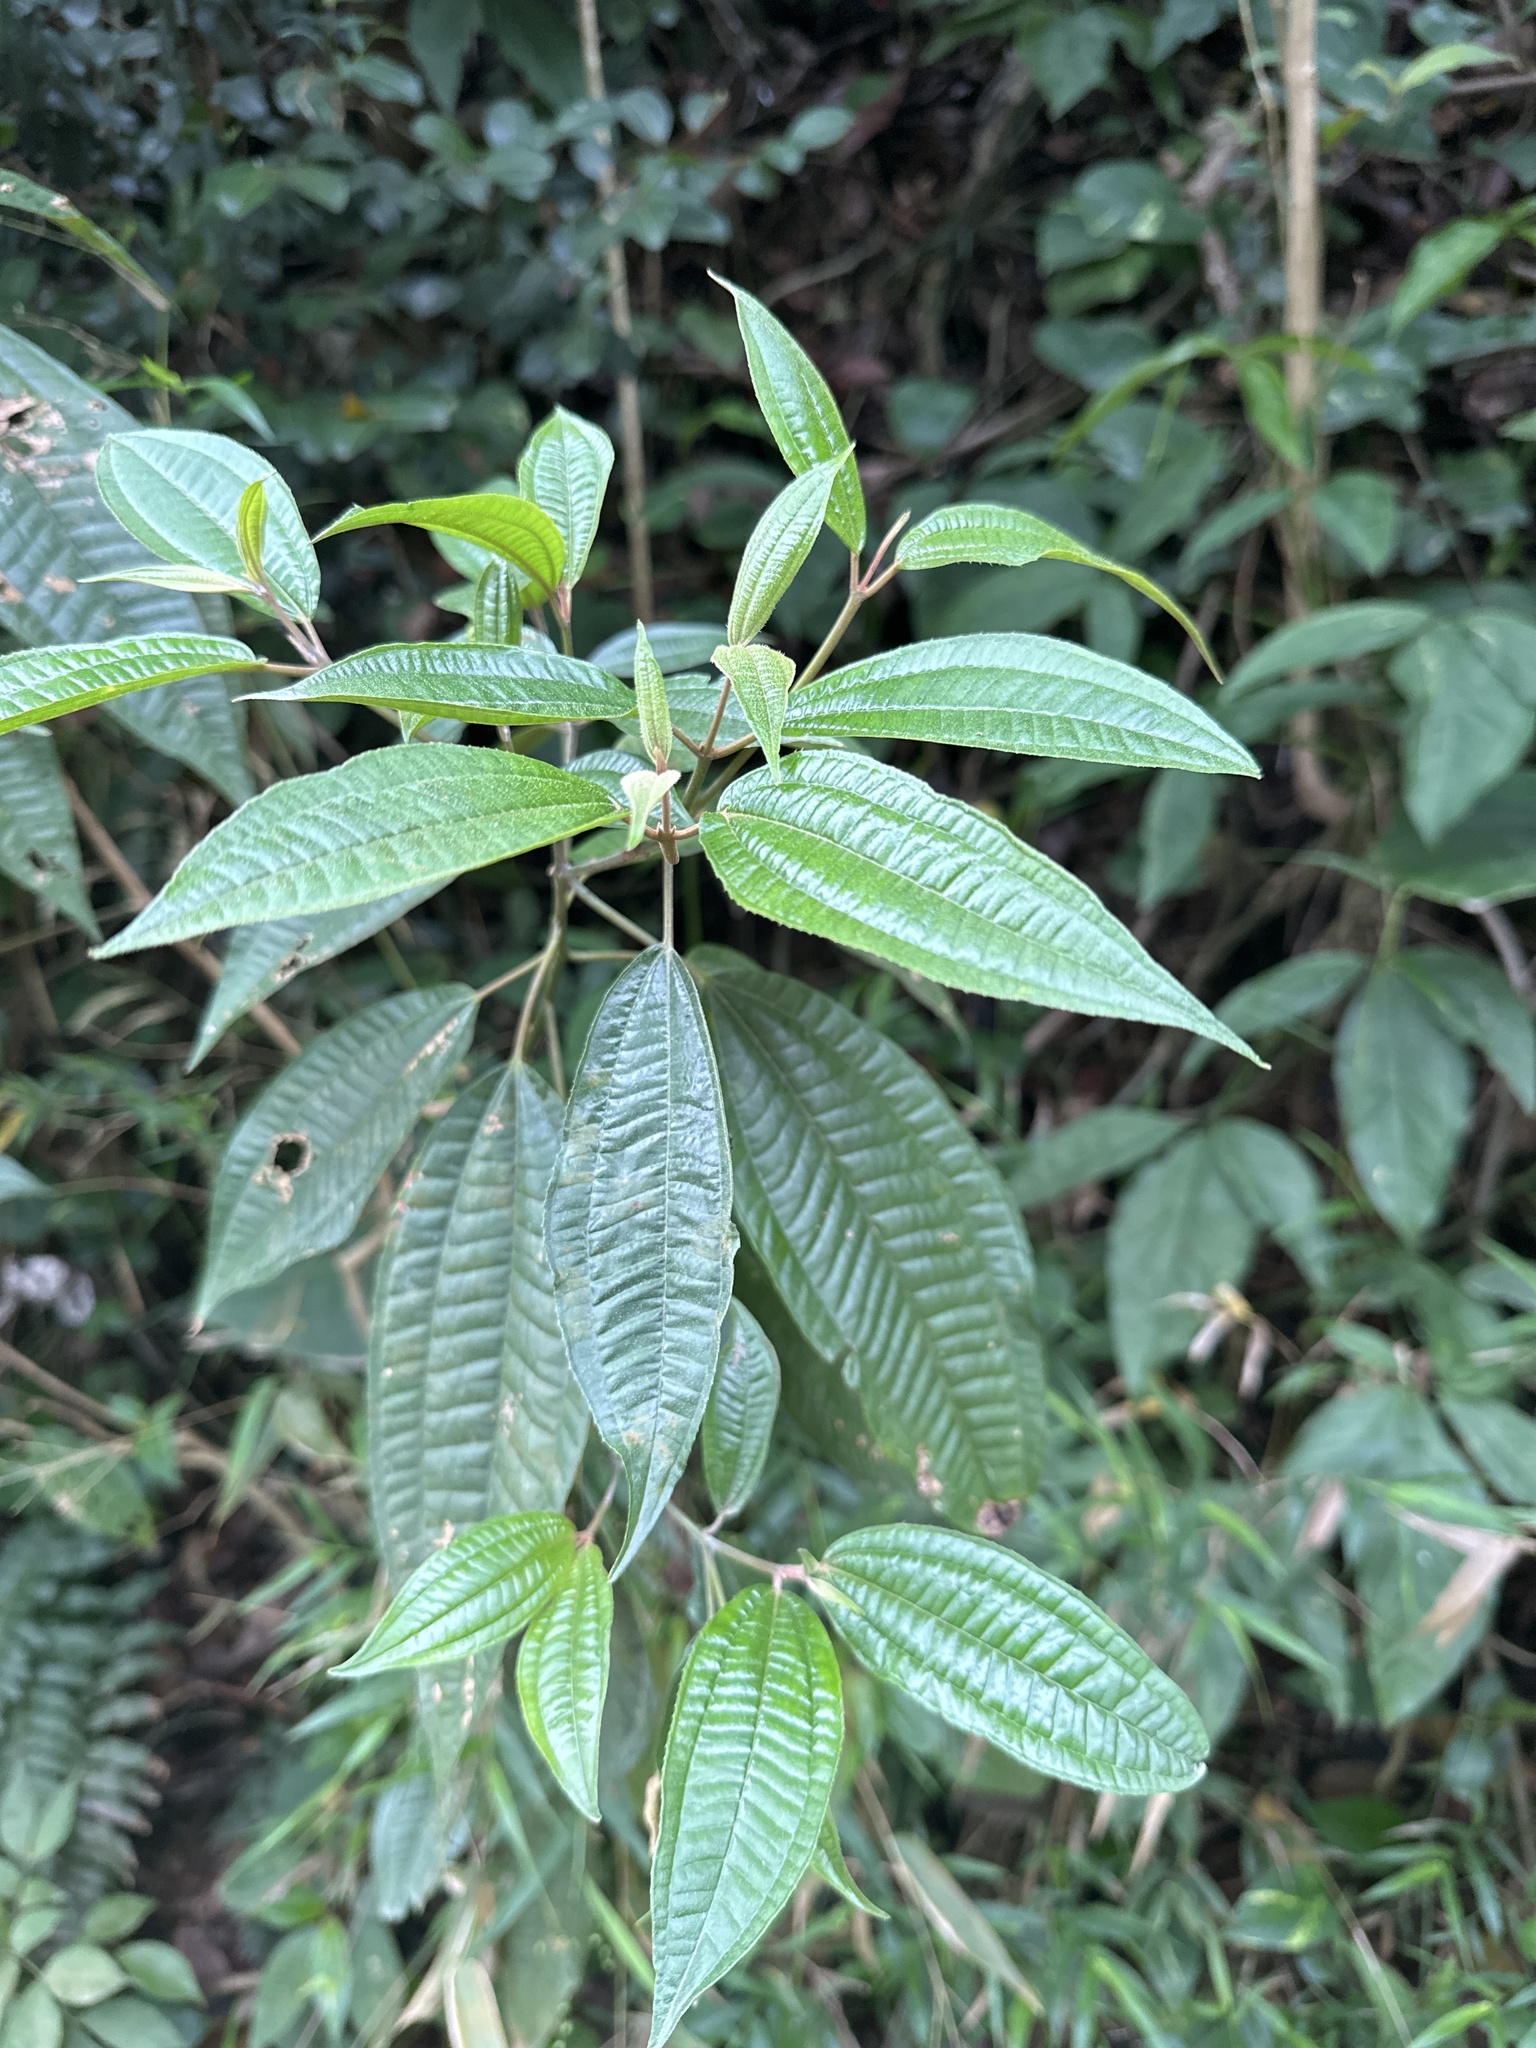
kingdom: Plantae
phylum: Tracheophyta
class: Magnoliopsida
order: Myrtales
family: Melastomataceae
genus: Miconia
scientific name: Miconia laevigata
